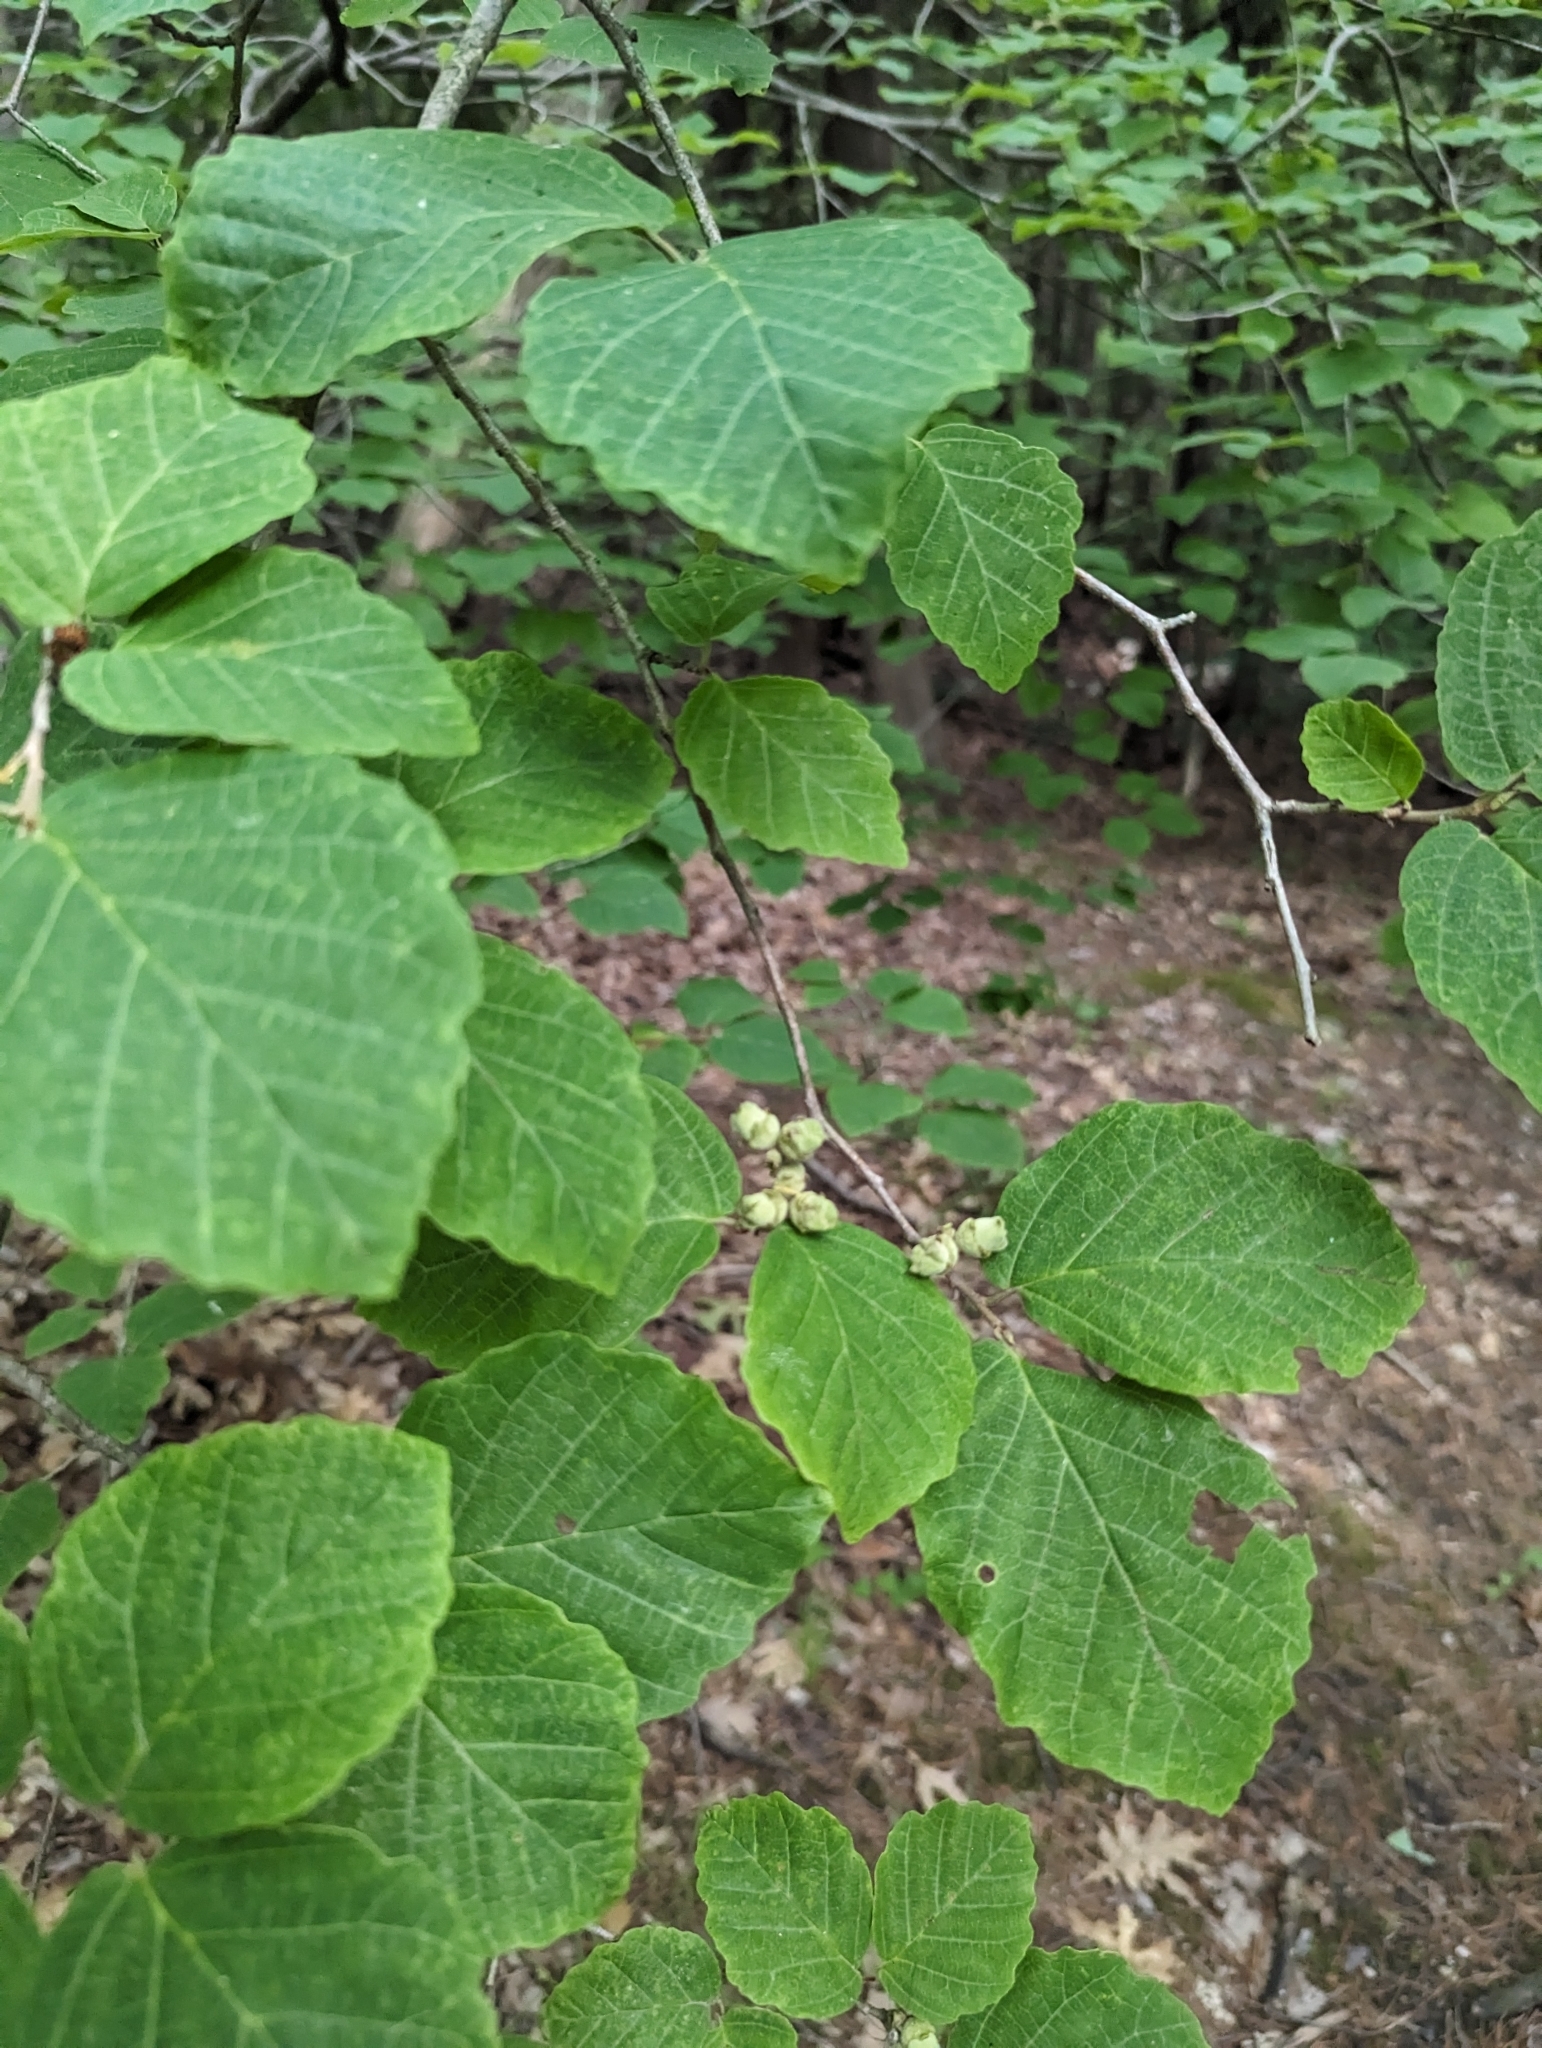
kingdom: Plantae
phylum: Tracheophyta
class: Magnoliopsida
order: Saxifragales
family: Hamamelidaceae
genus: Hamamelis
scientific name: Hamamelis virginiana
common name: Witch-hazel
